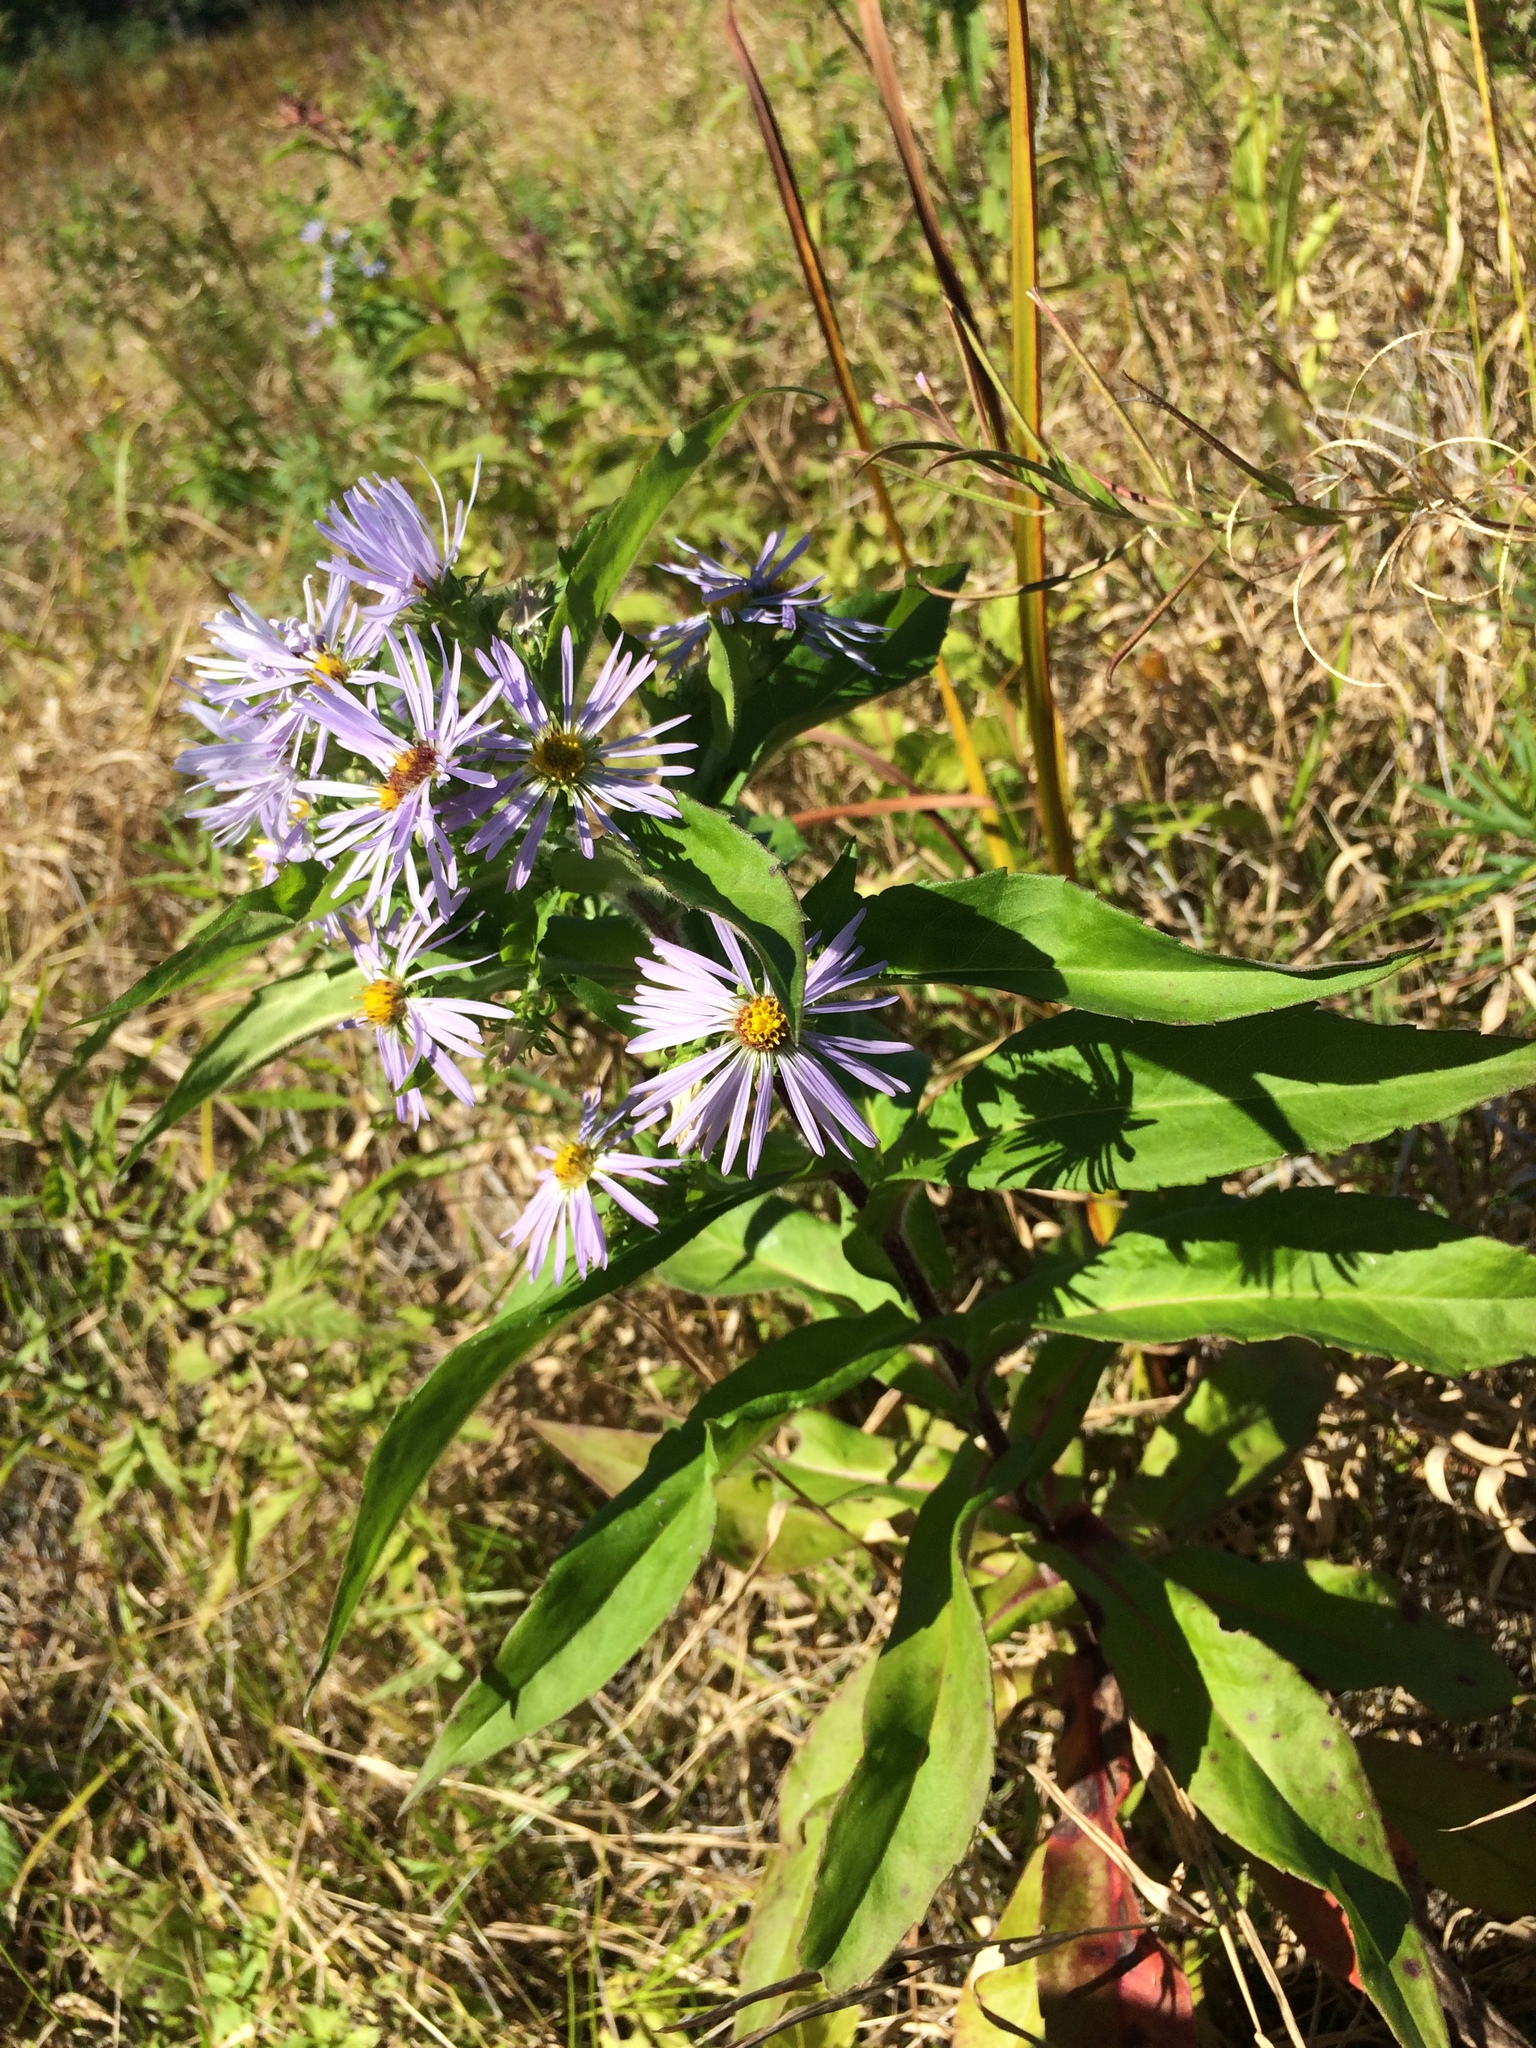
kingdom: Plantae
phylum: Tracheophyta
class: Magnoliopsida
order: Asterales
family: Asteraceae
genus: Symphyotrichum
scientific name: Symphyotrichum puniceum
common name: Bog aster
